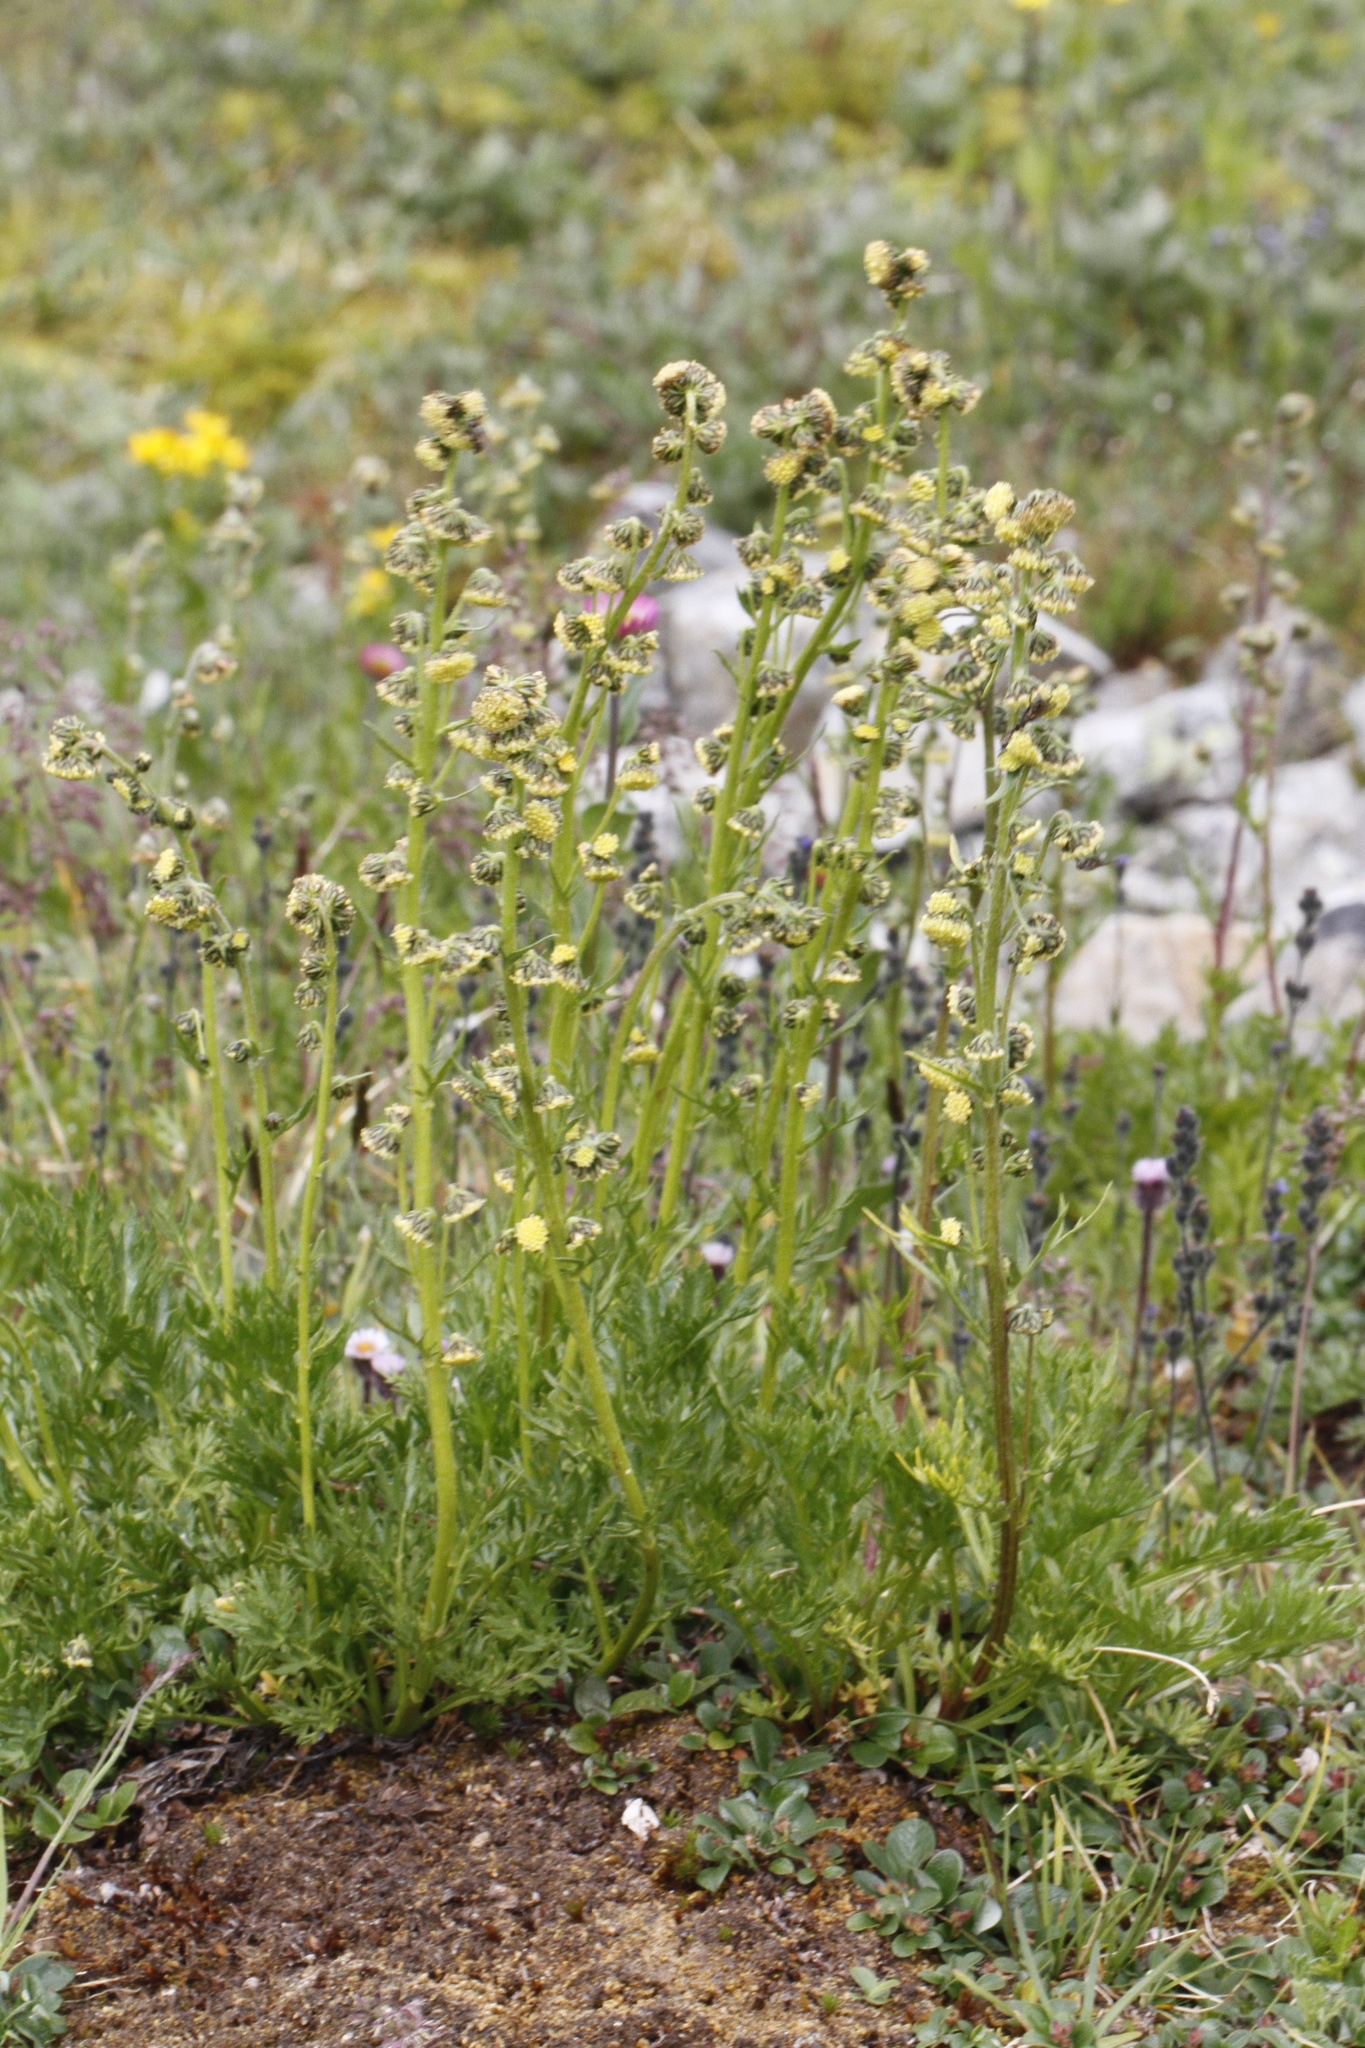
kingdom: Plantae
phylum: Tracheophyta
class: Magnoliopsida
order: Asterales
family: Asteraceae
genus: Artemisia
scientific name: Artemisia norvegica
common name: Norwegian mugwort
